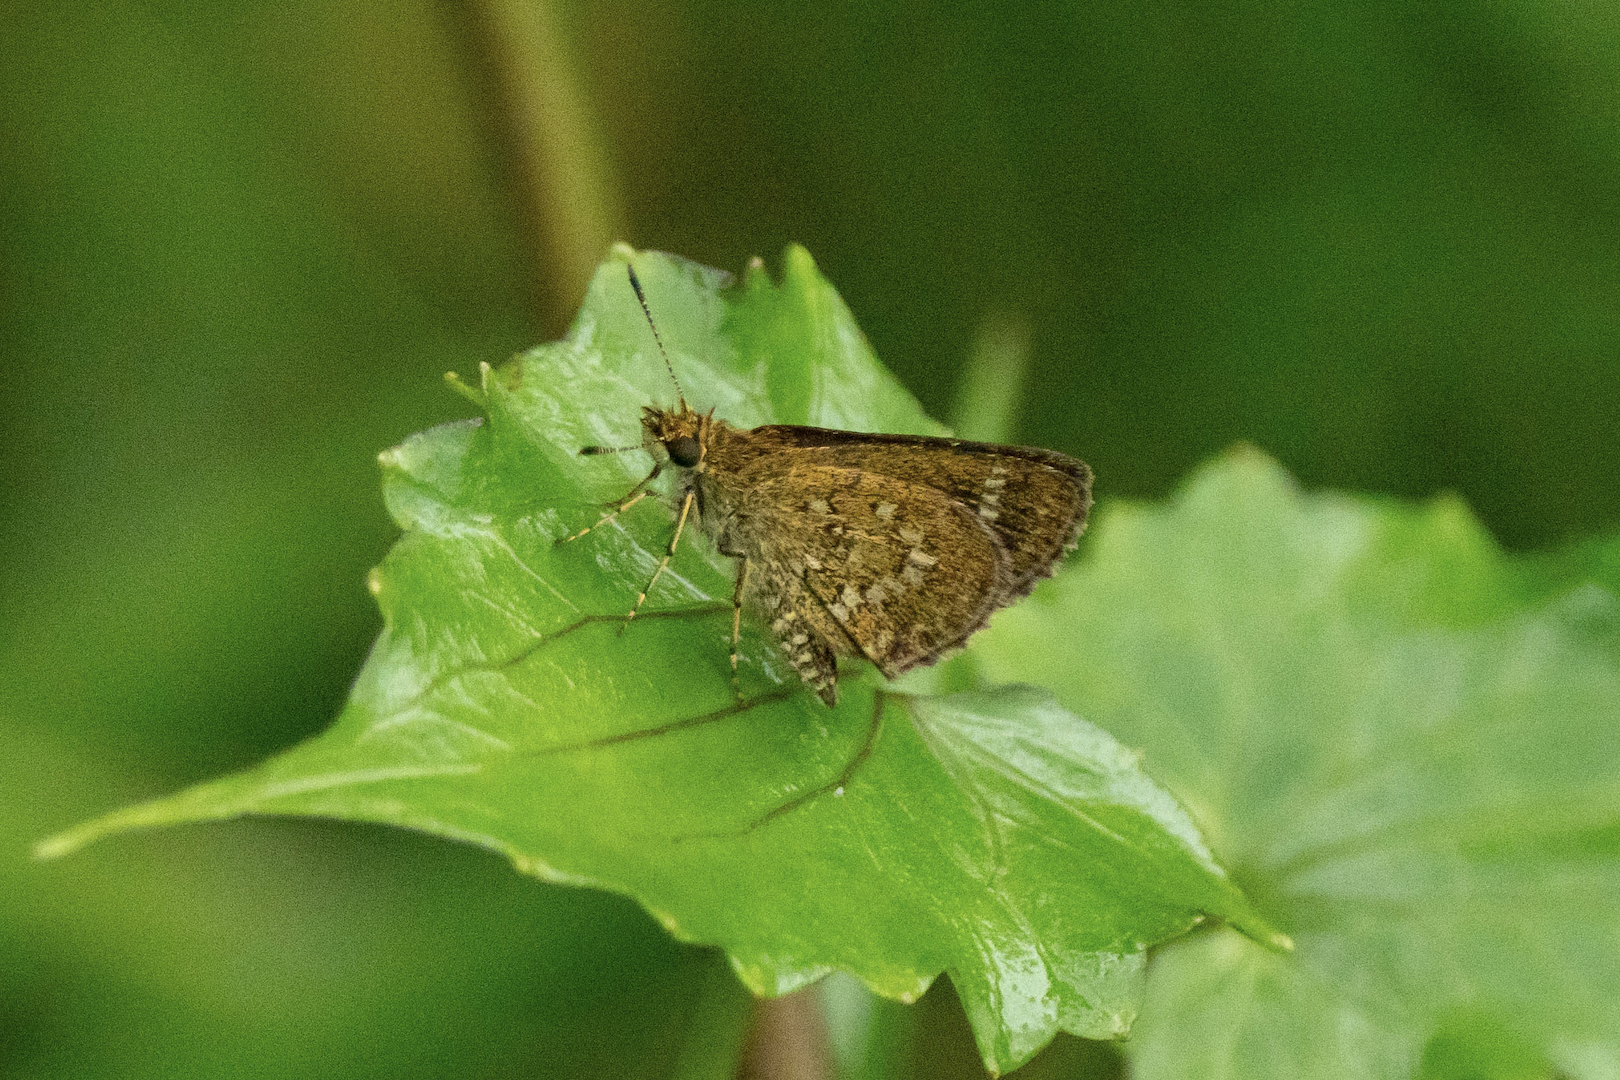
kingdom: Animalia
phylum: Arthropoda
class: Insecta
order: Lepidoptera
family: Hesperiidae
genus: Aeromachus
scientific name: Aeromachus jhora
